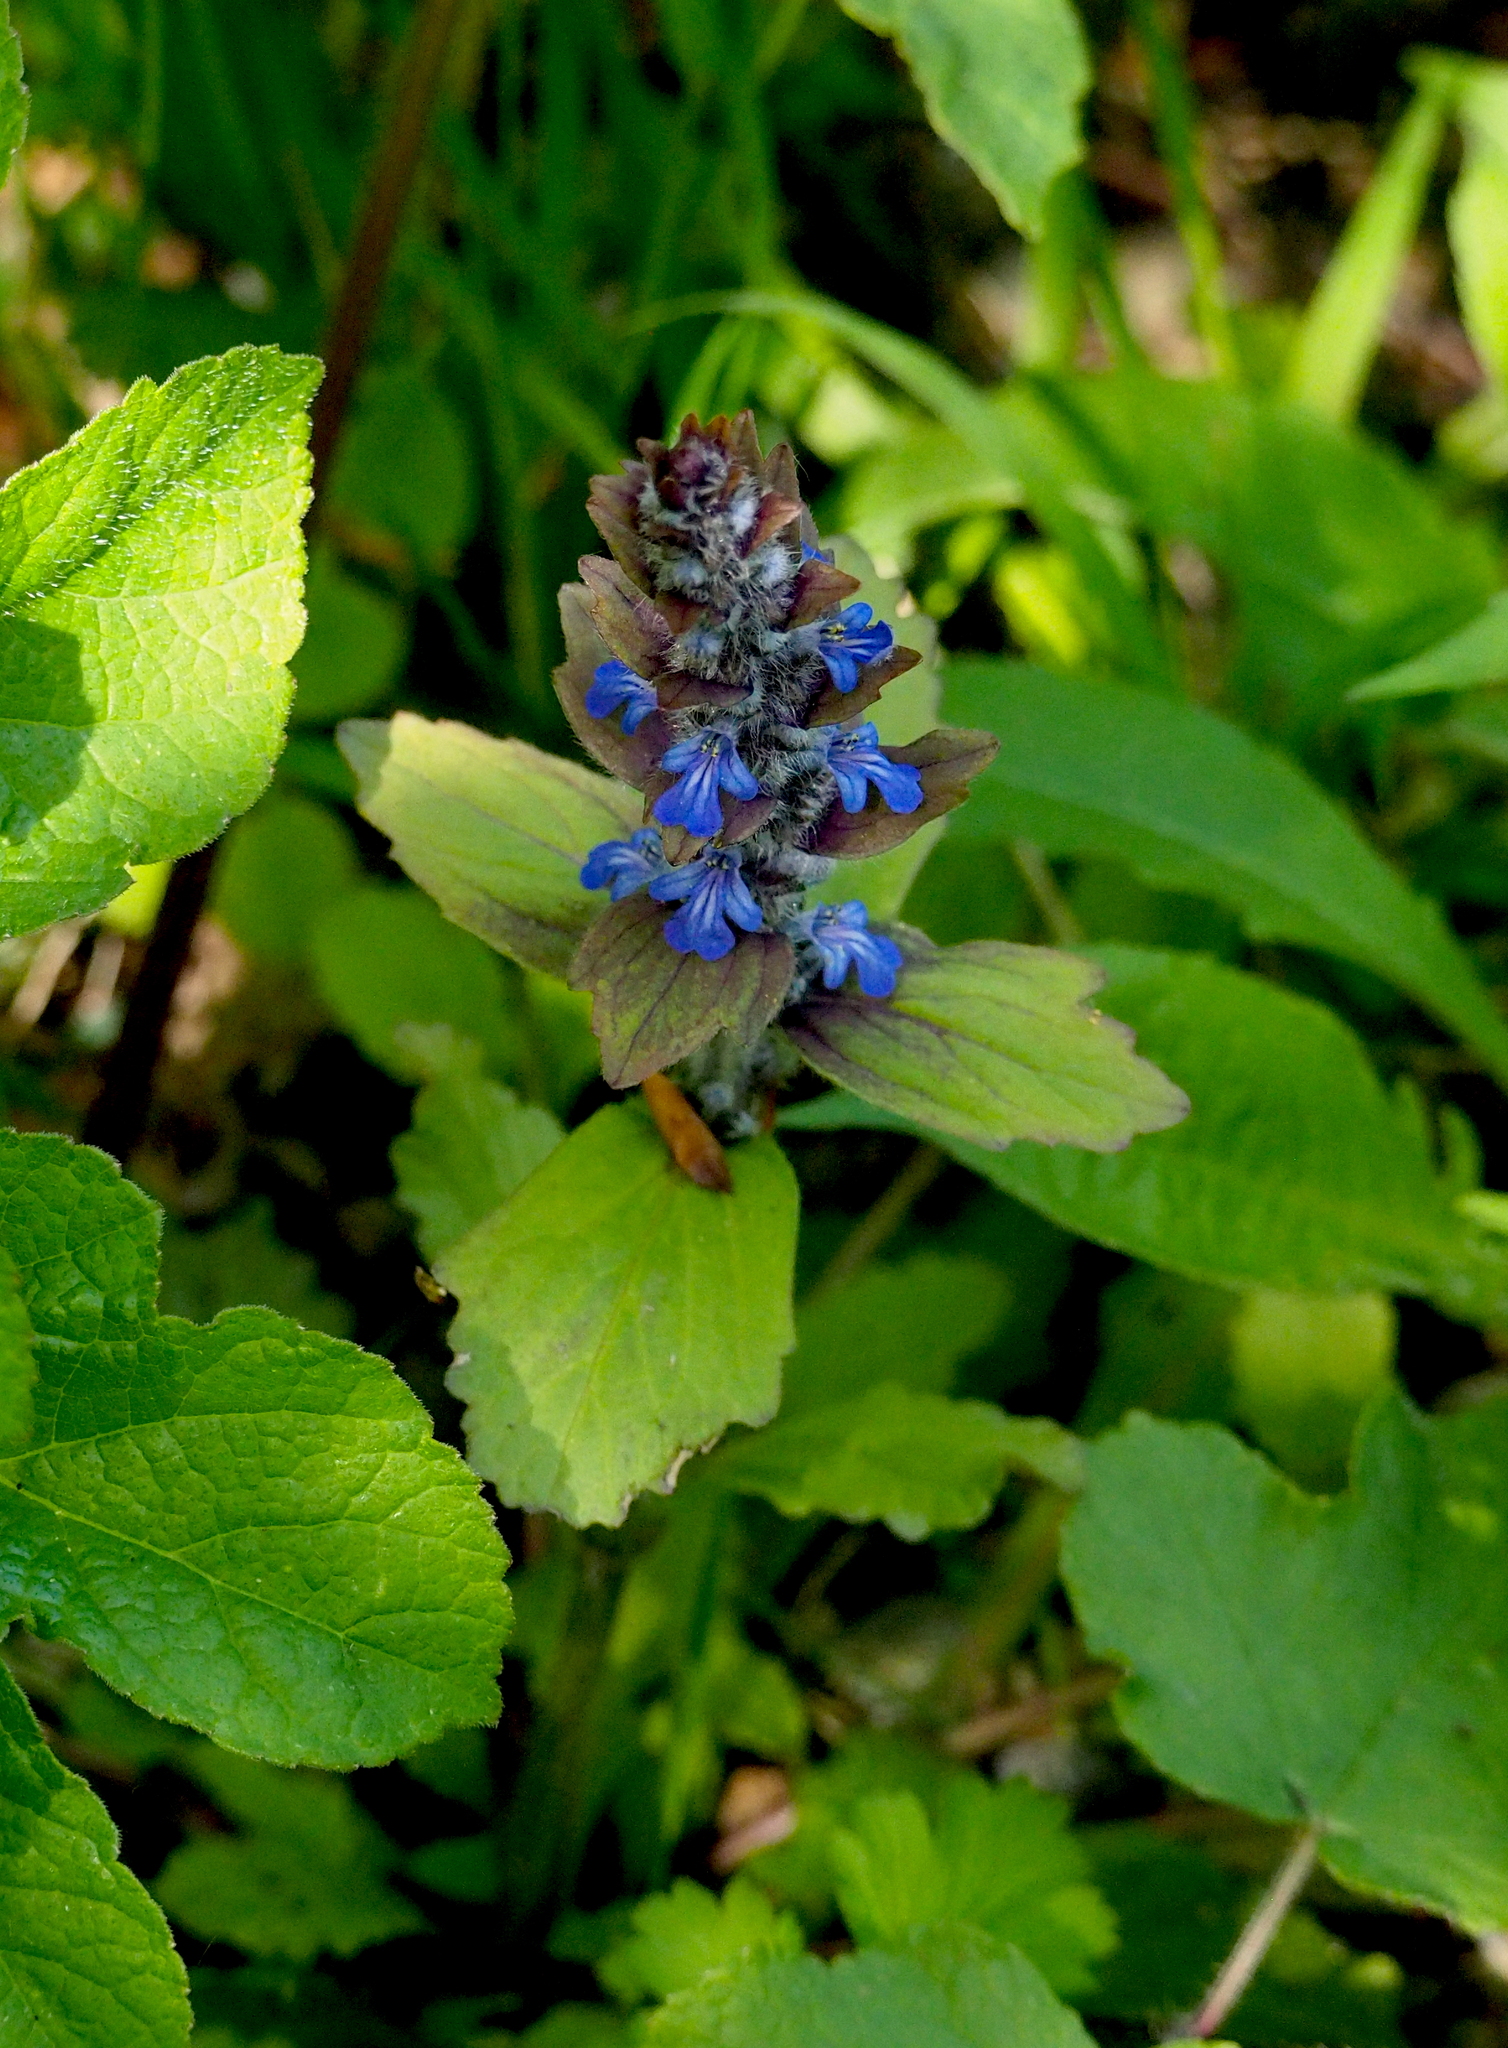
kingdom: Plantae
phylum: Tracheophyta
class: Magnoliopsida
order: Lamiales
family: Lamiaceae
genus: Ajuga
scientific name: Ajuga genevensis
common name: Blue bugle
